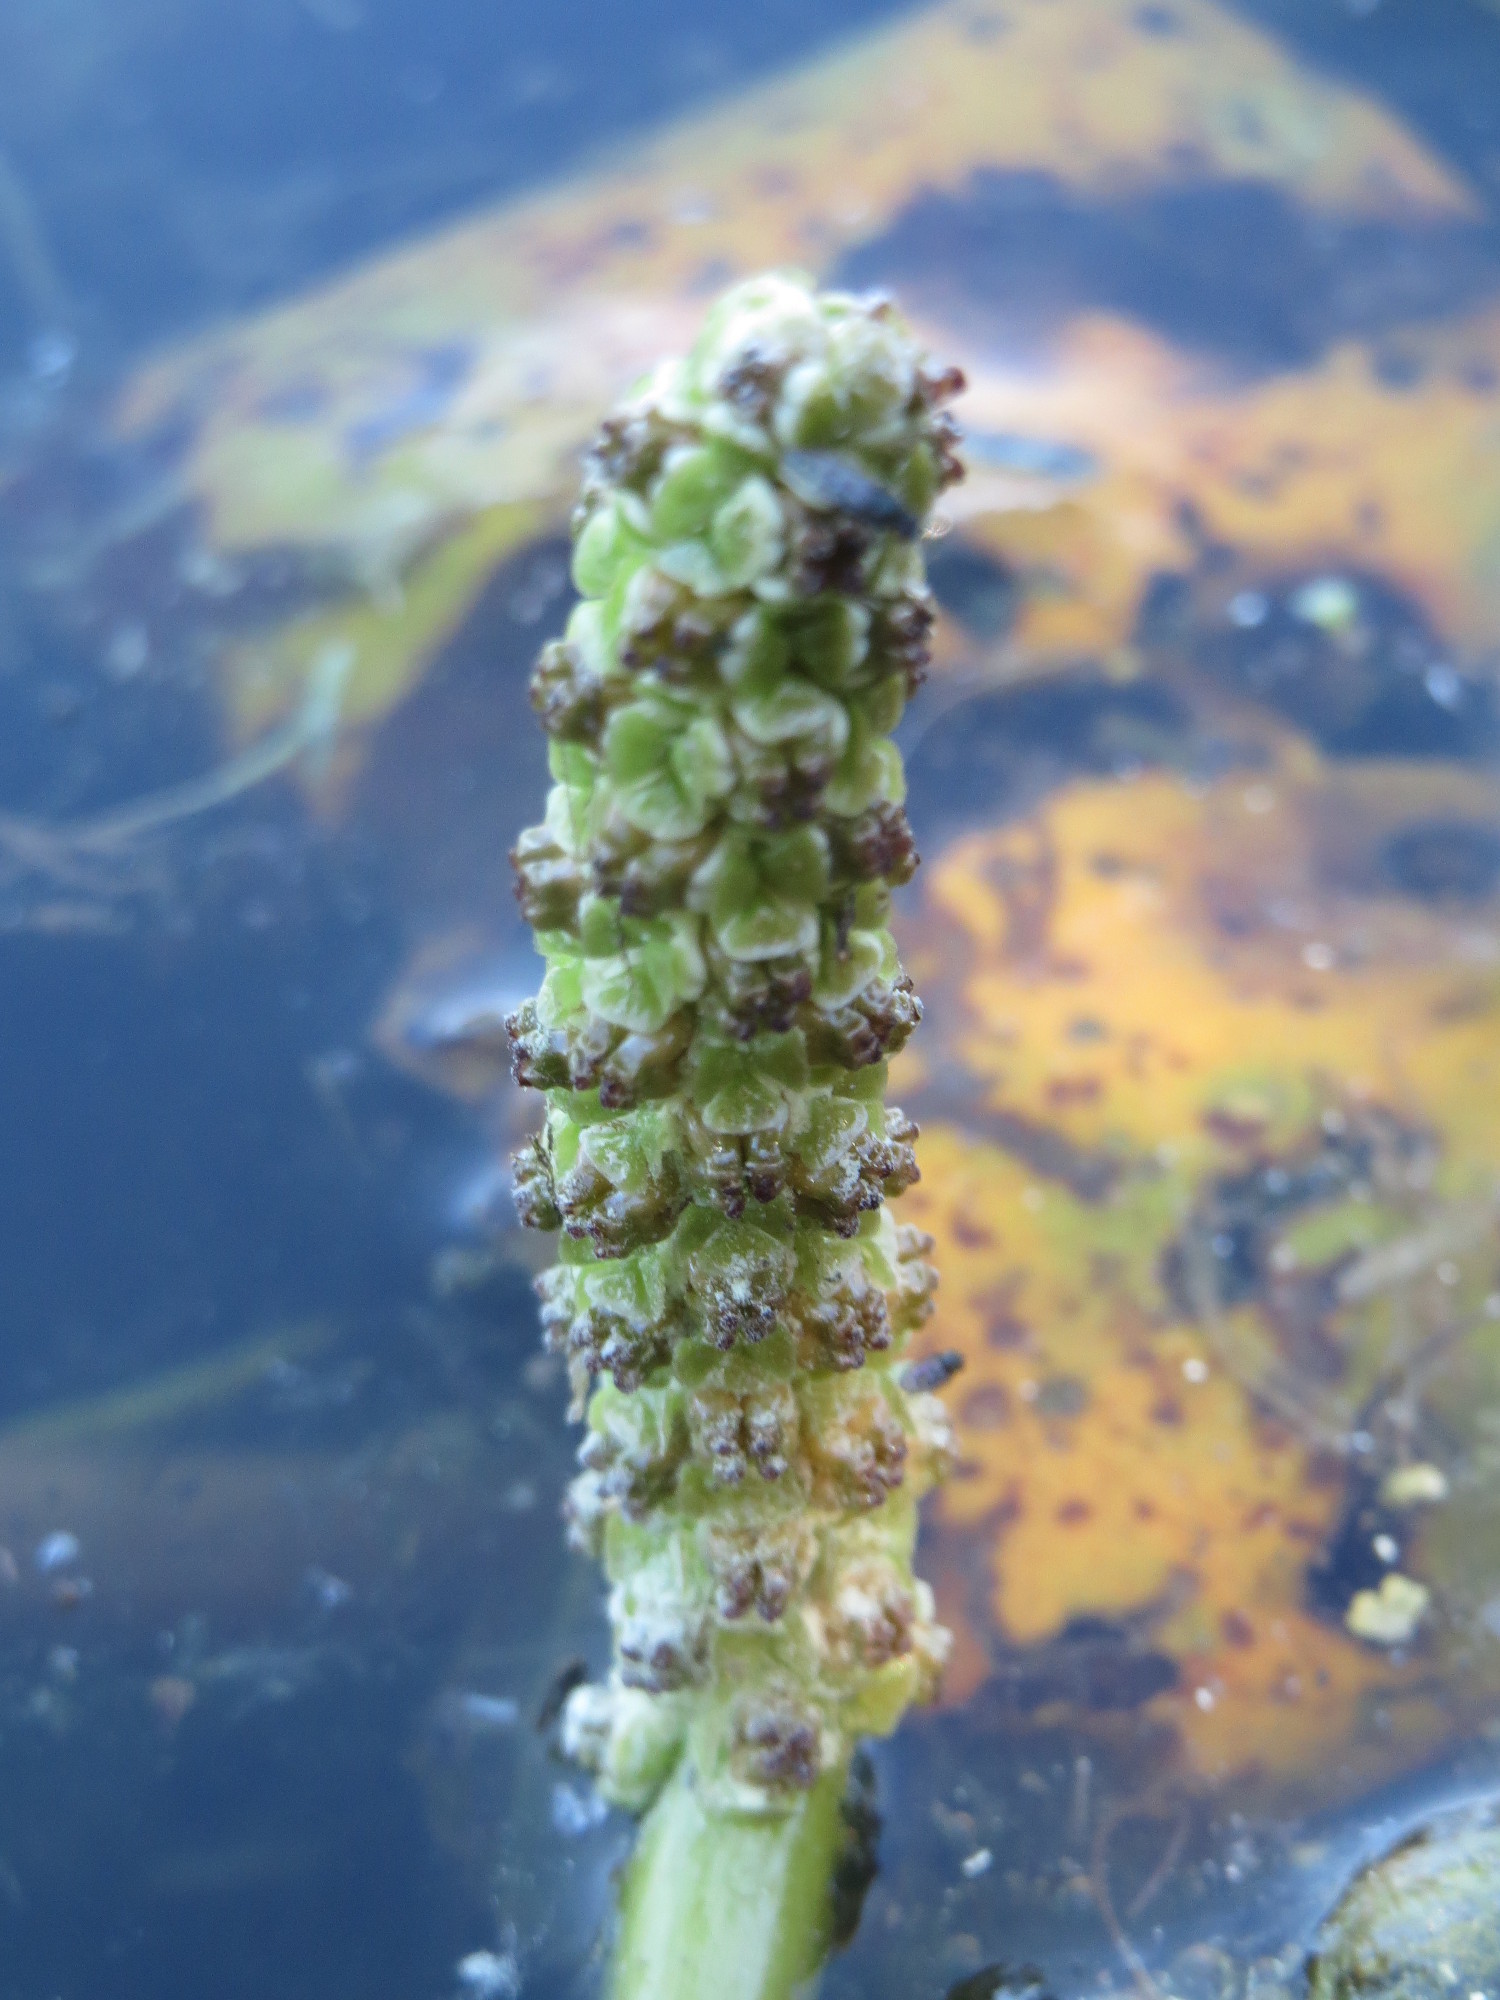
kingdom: Plantae
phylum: Tracheophyta
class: Liliopsida
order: Alismatales
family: Potamogetonaceae
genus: Potamogeton
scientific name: Potamogeton lucens
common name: Shining pondweed
